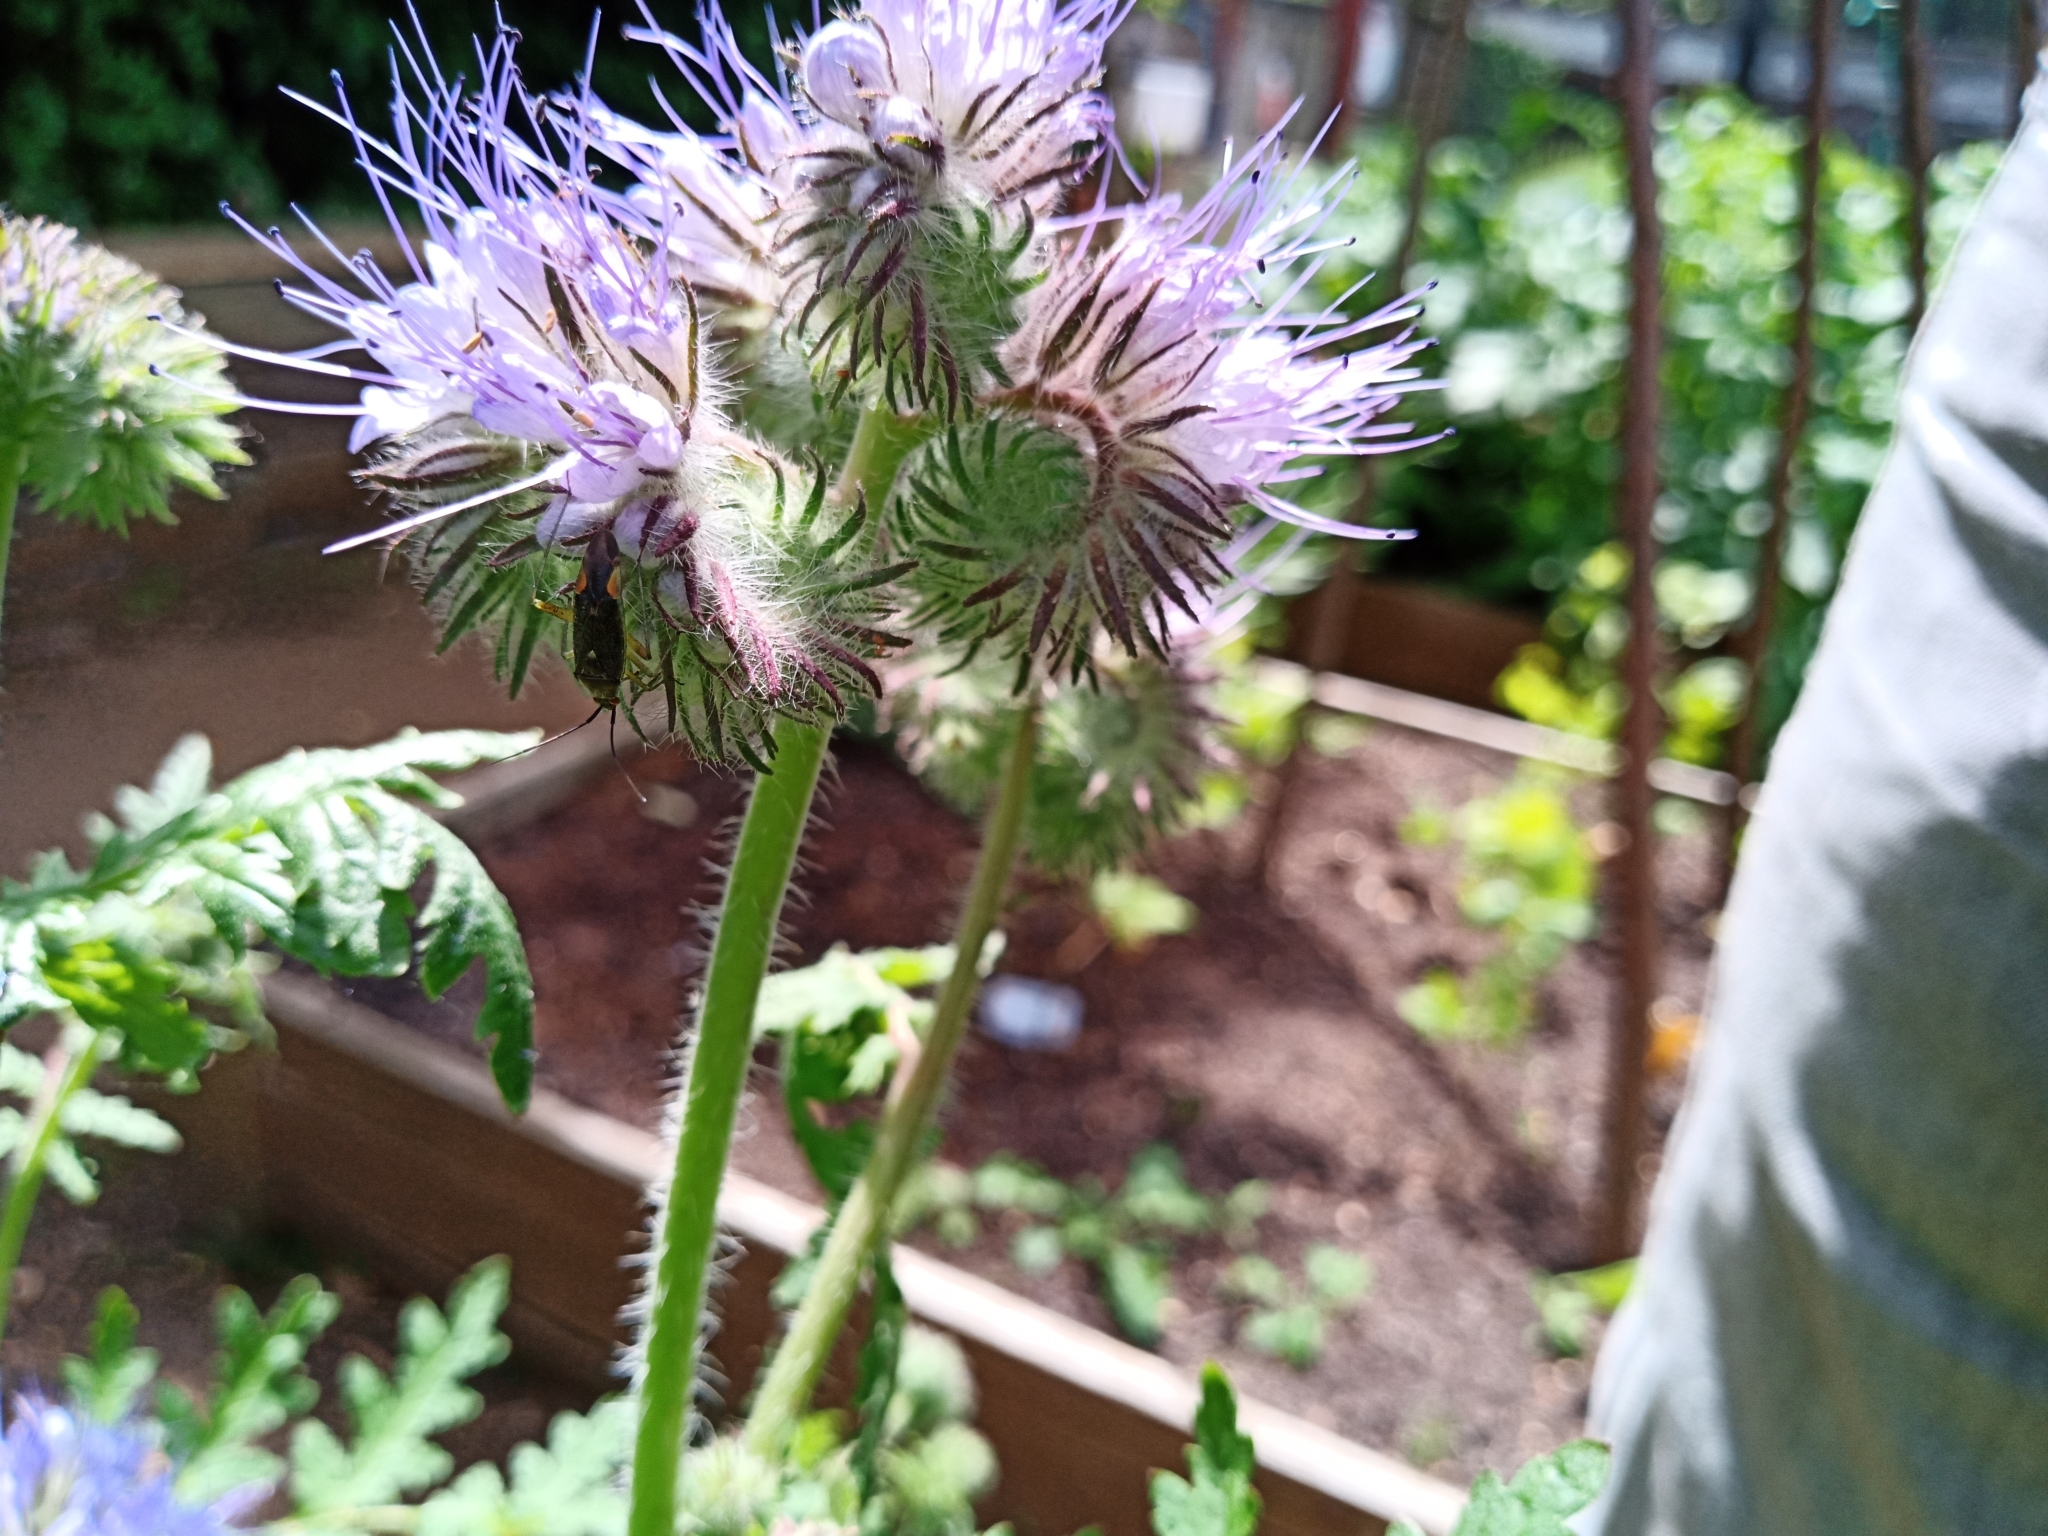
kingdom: Animalia
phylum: Arthropoda
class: Insecta
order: Hemiptera
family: Miridae
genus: Closterotomus
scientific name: Closterotomus trivialis
